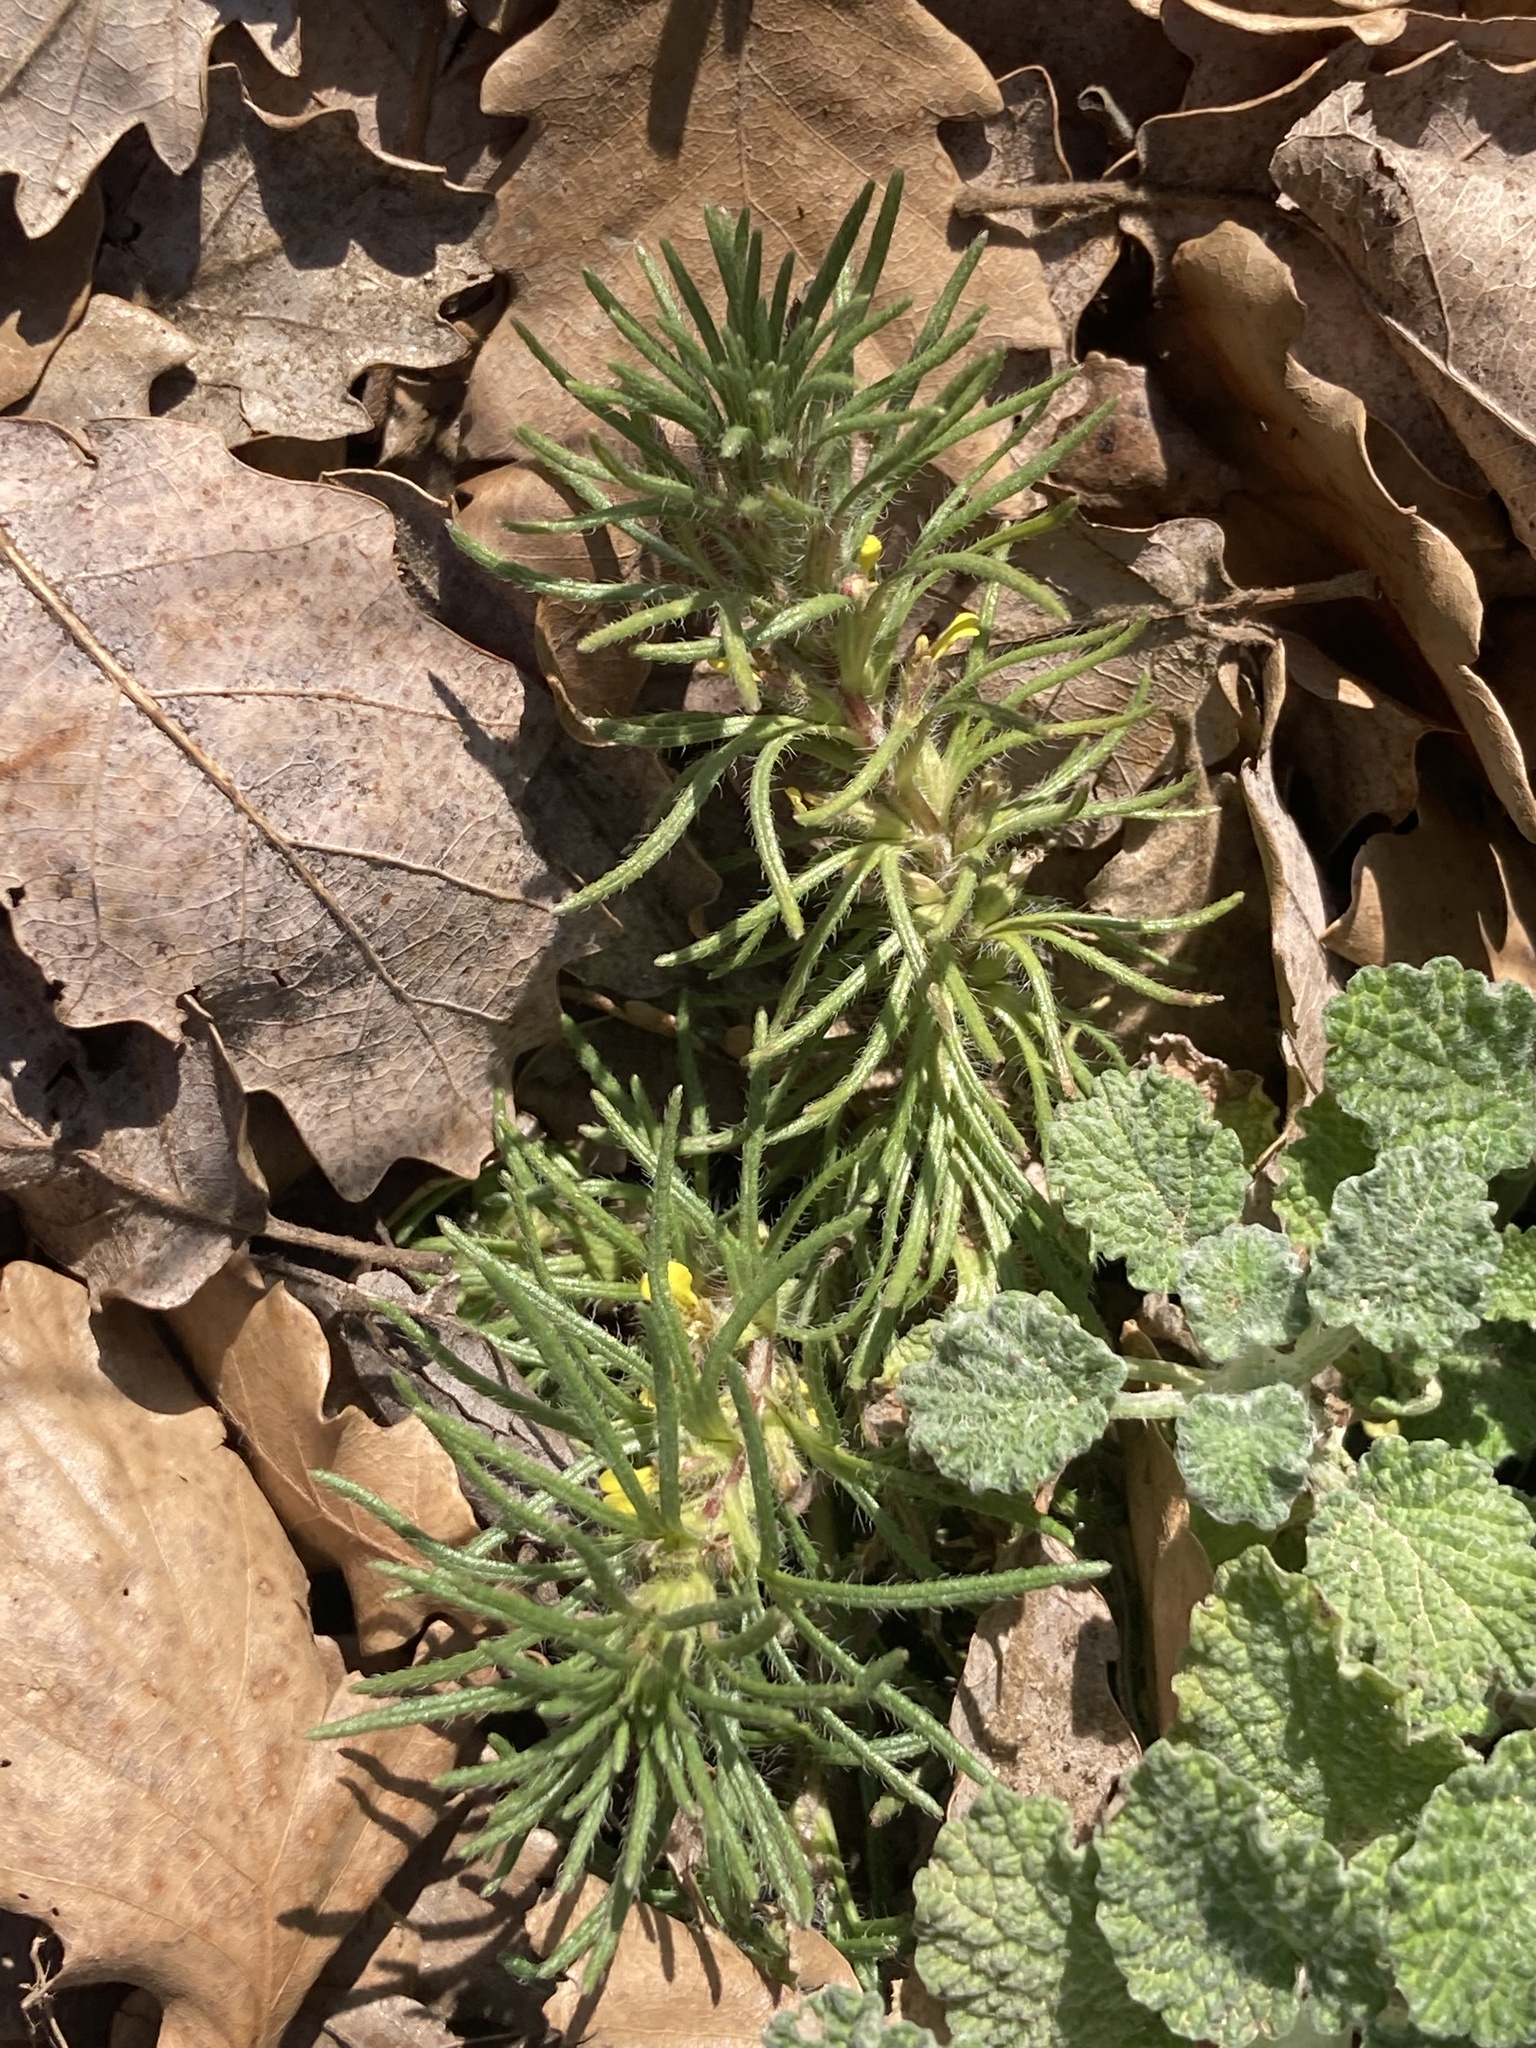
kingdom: Plantae
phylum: Tracheophyta
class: Magnoliopsida
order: Lamiales
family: Lamiaceae
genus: Ajuga
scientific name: Ajuga chamaepitys
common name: Ground-pine
